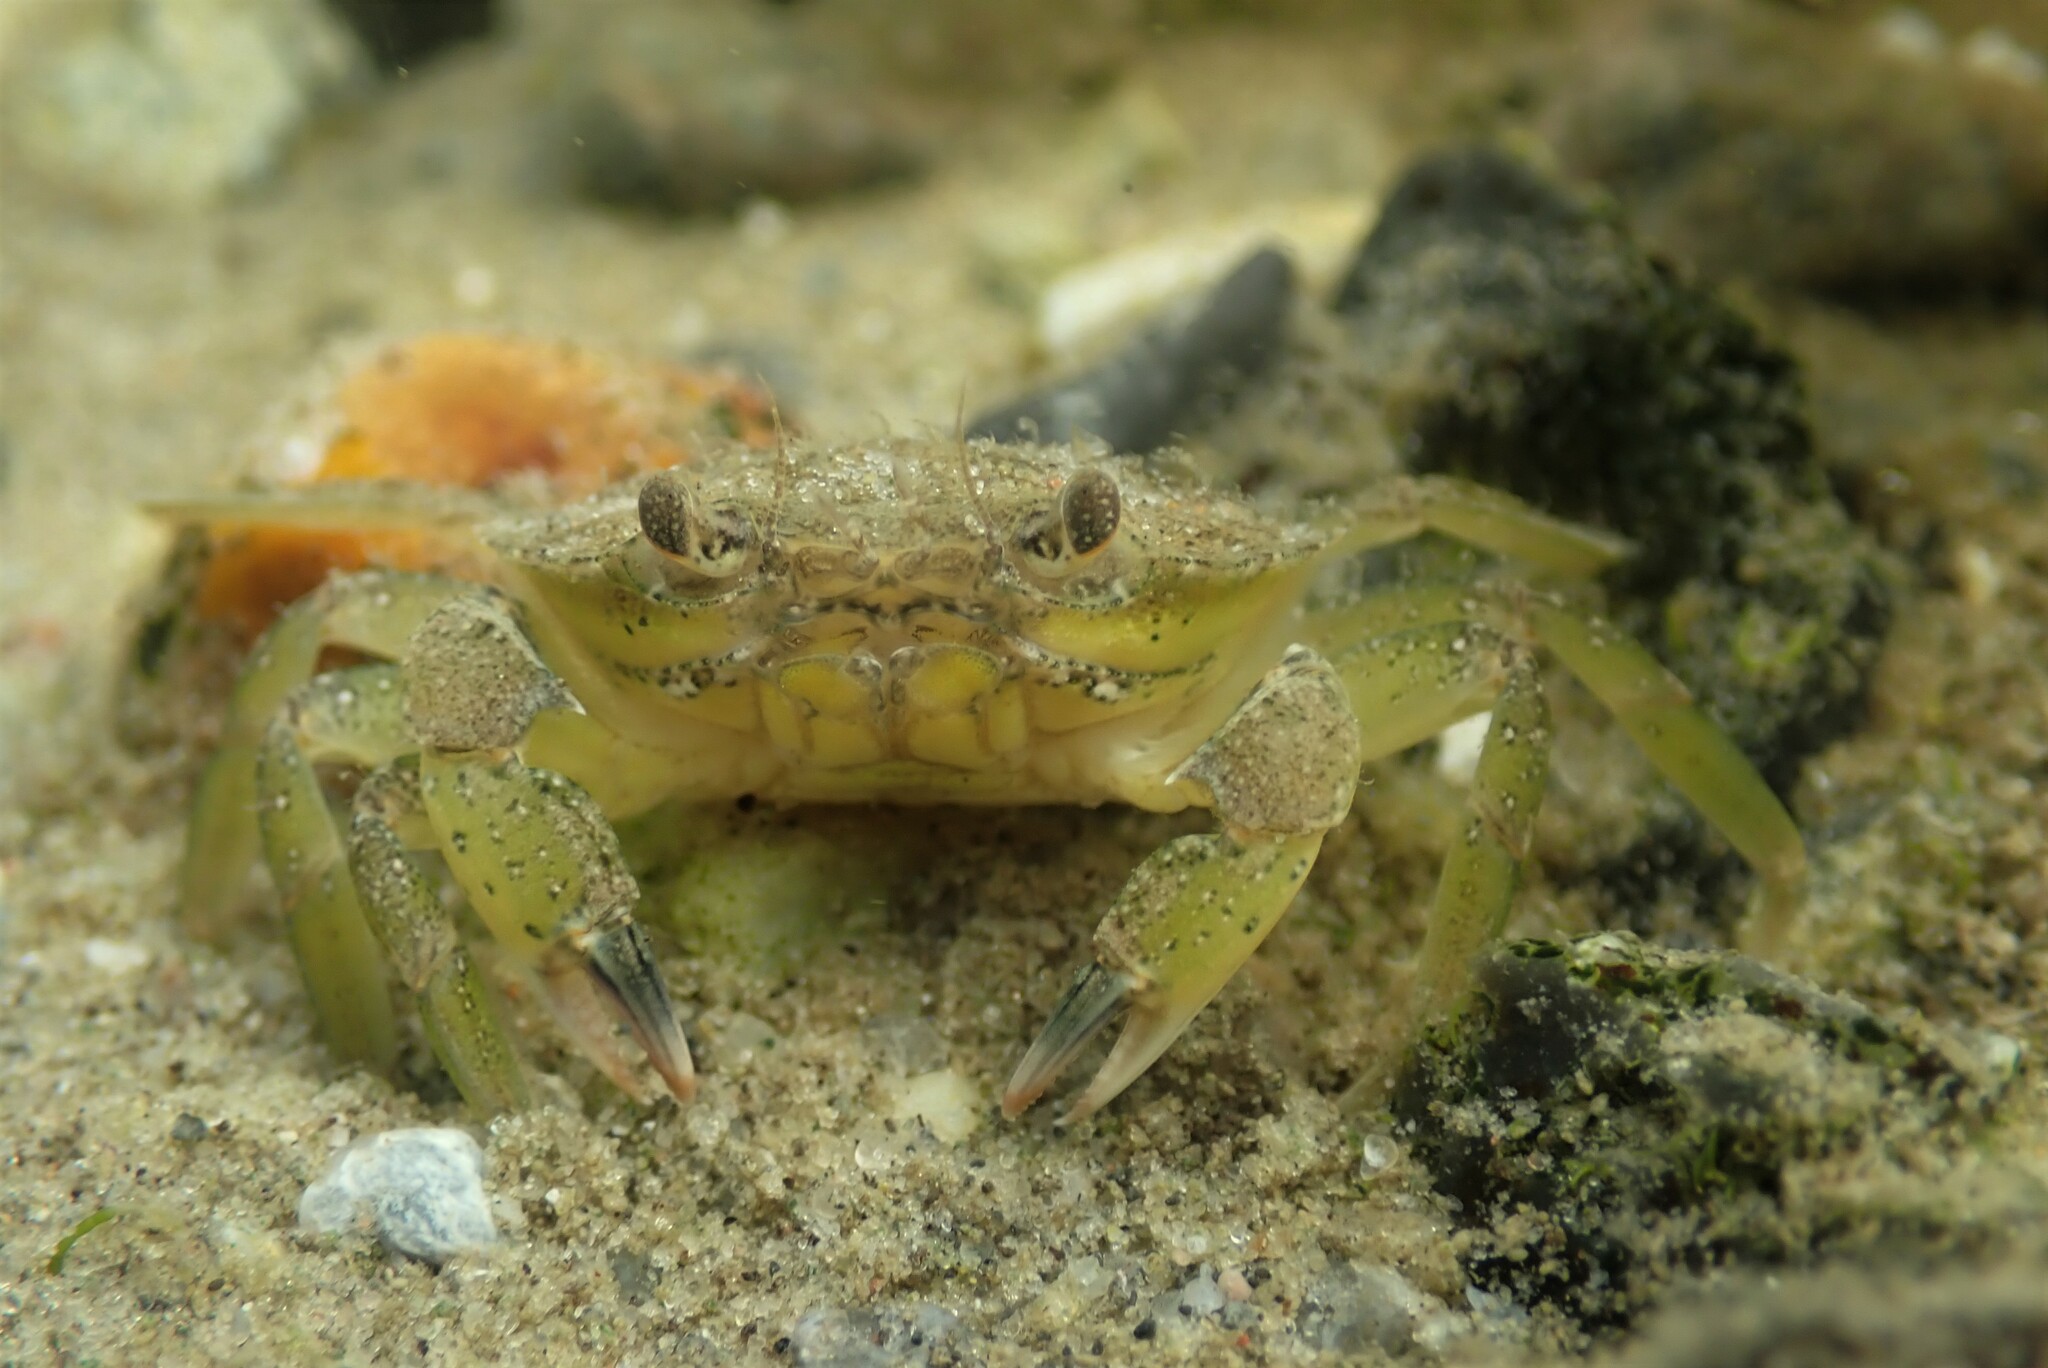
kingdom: Animalia
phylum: Arthropoda
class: Malacostraca
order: Decapoda
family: Carcinidae
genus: Carcinus
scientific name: Carcinus maenas
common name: European green crab
